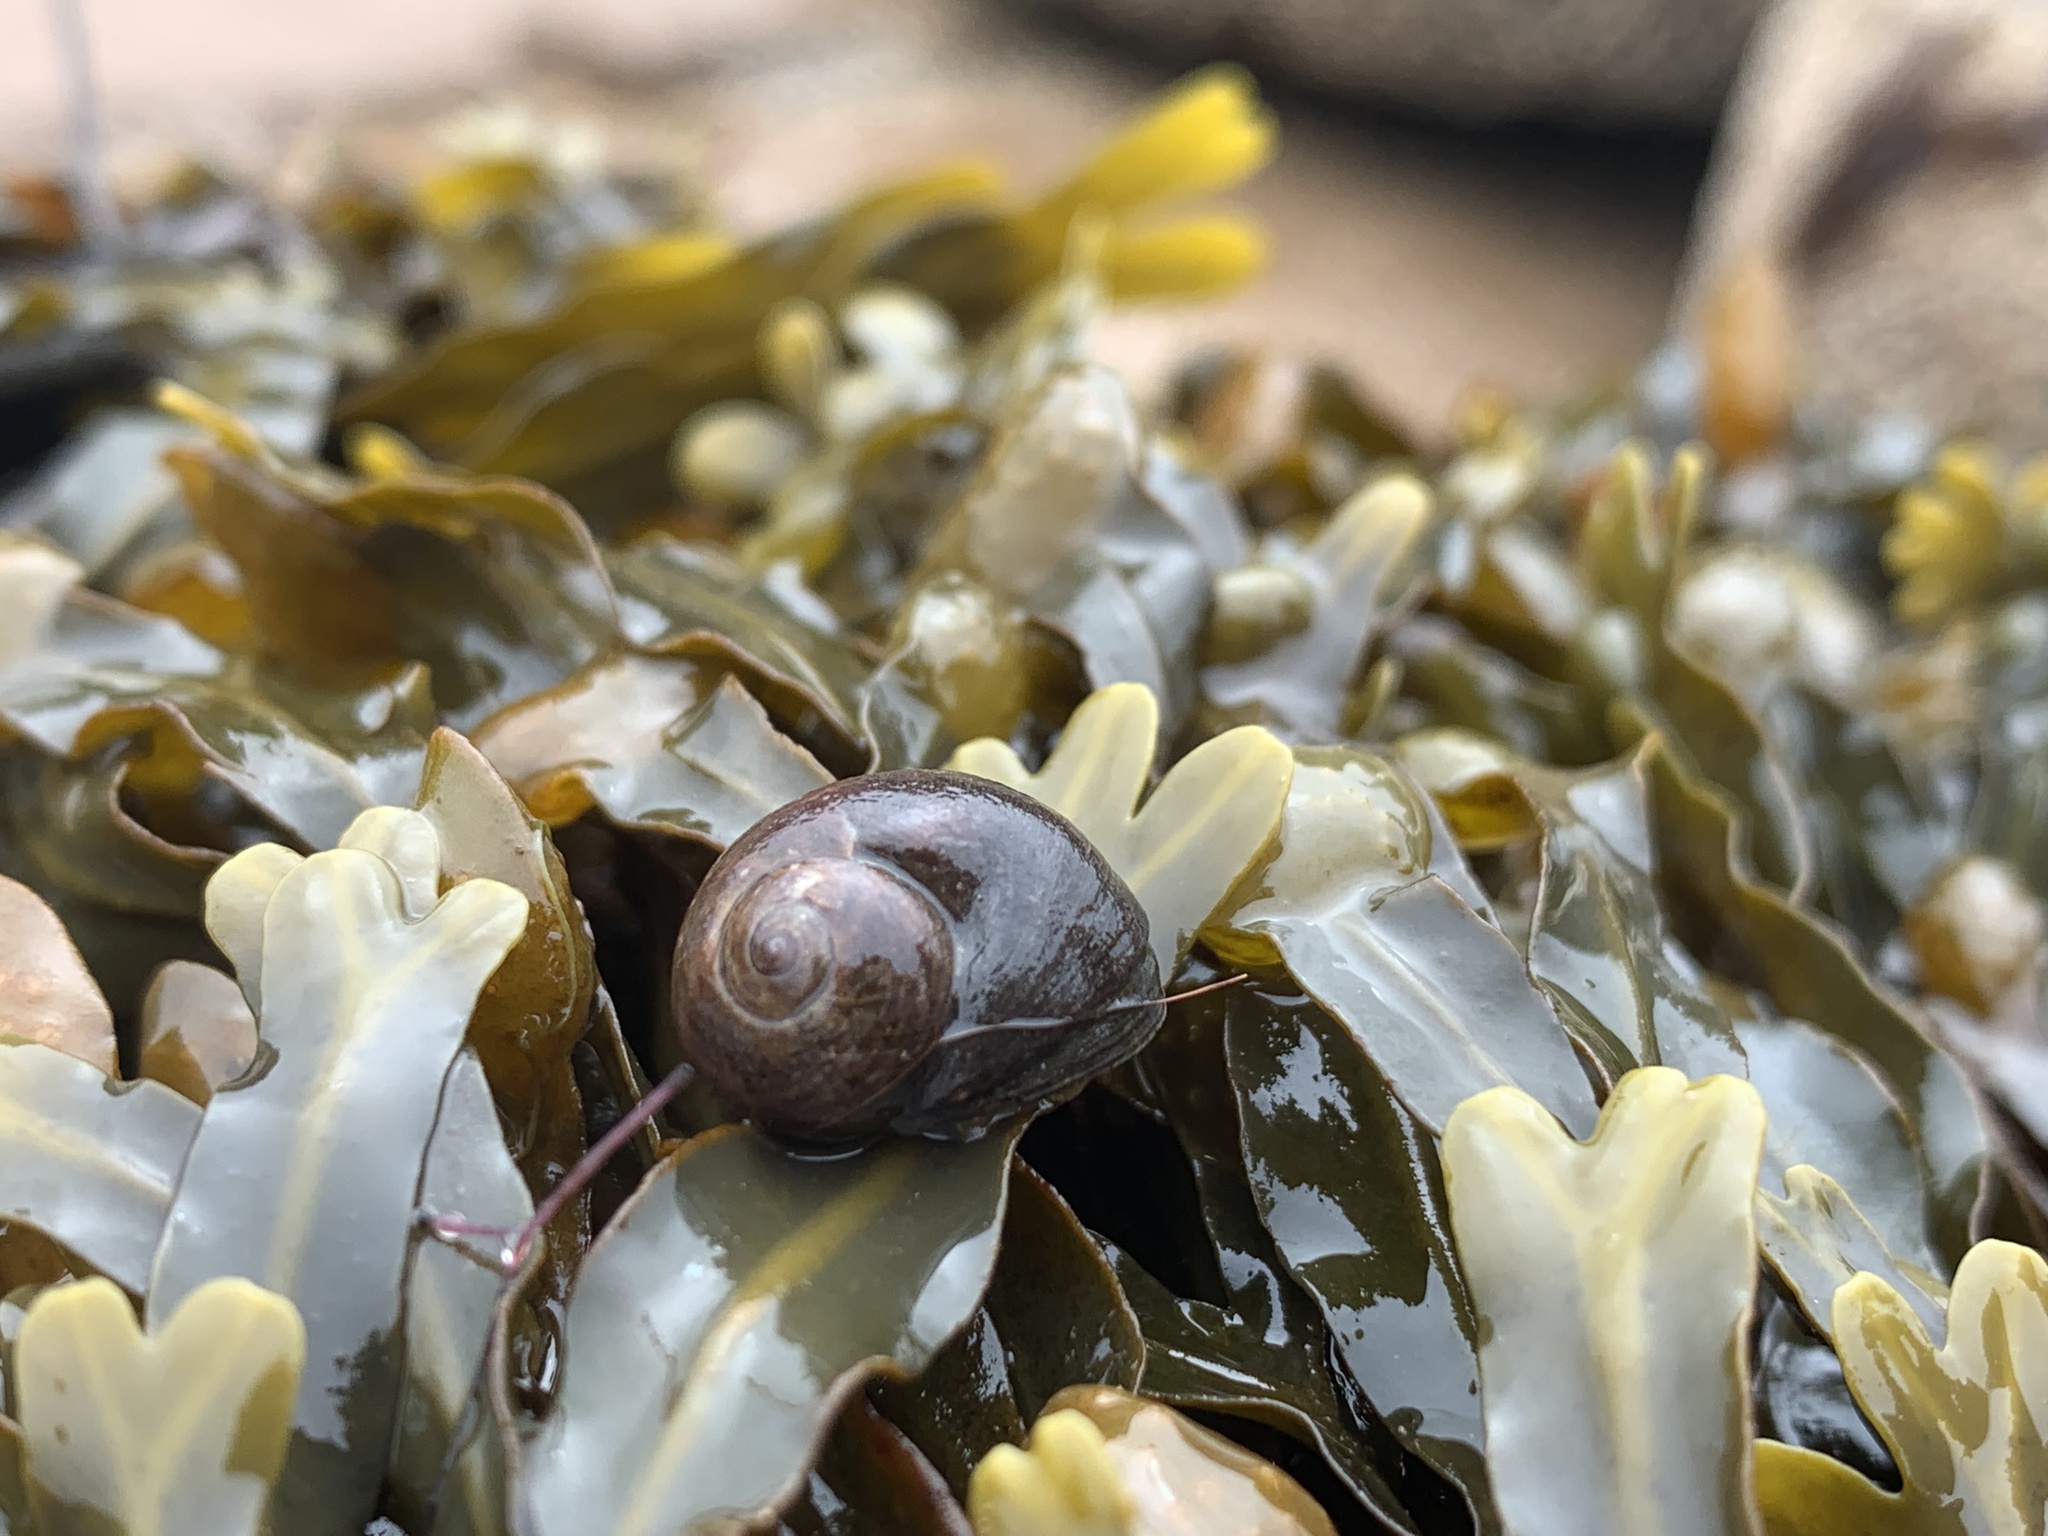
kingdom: Animalia
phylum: Mollusca
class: Gastropoda
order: Littorinimorpha
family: Littorinidae
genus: Littorina
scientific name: Littorina obtusata
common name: Flat periwinkle
